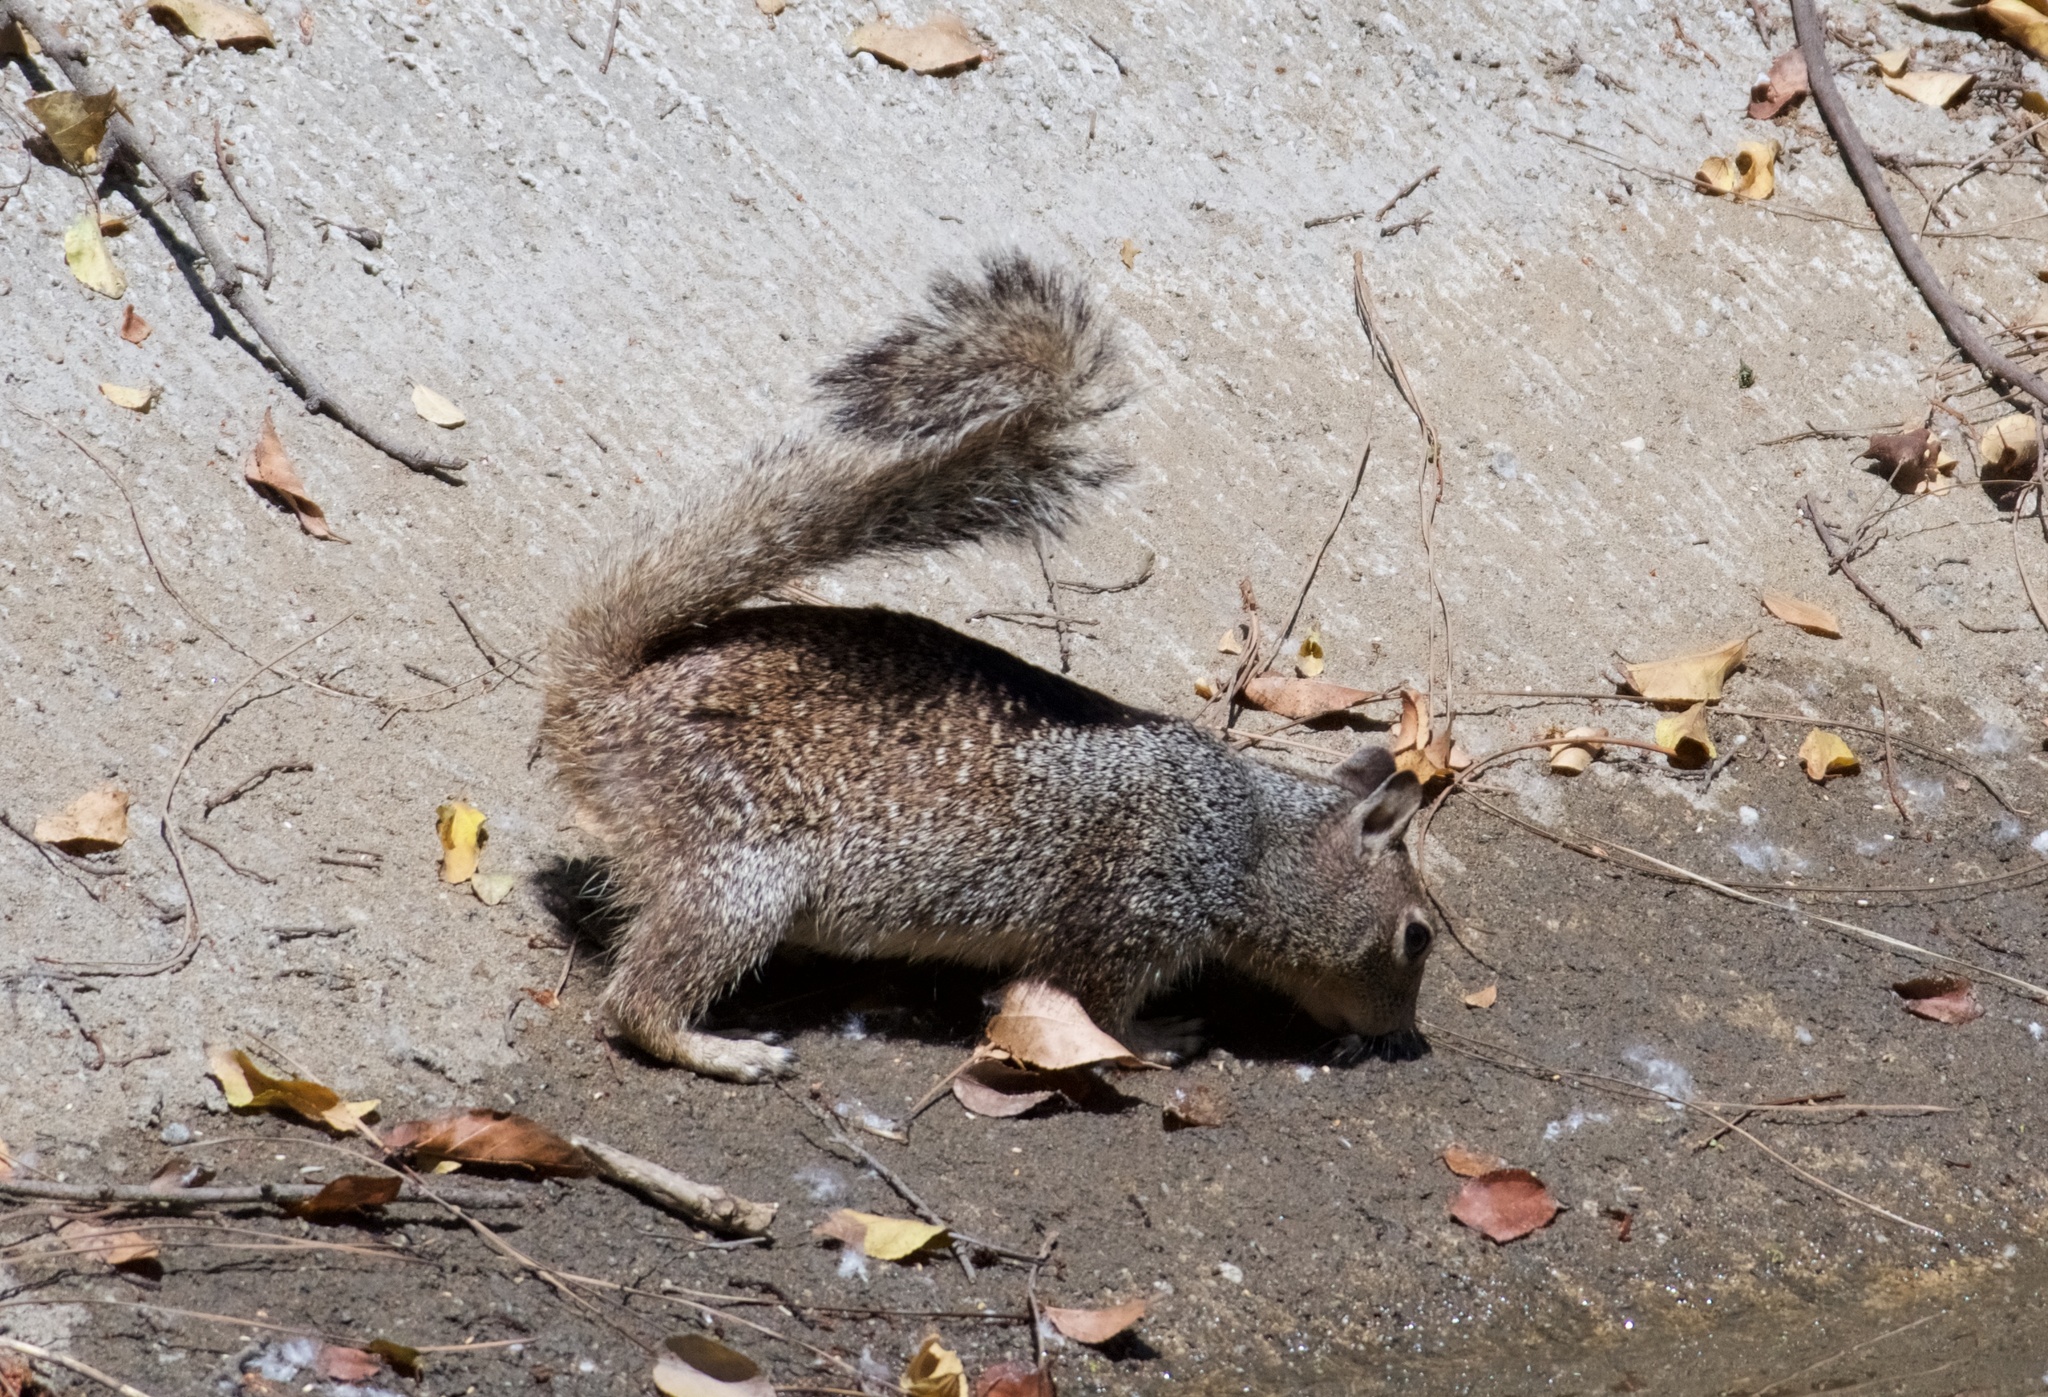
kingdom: Animalia
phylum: Chordata
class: Mammalia
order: Rodentia
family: Sciuridae
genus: Otospermophilus
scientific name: Otospermophilus beecheyi
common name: California ground squirrel
